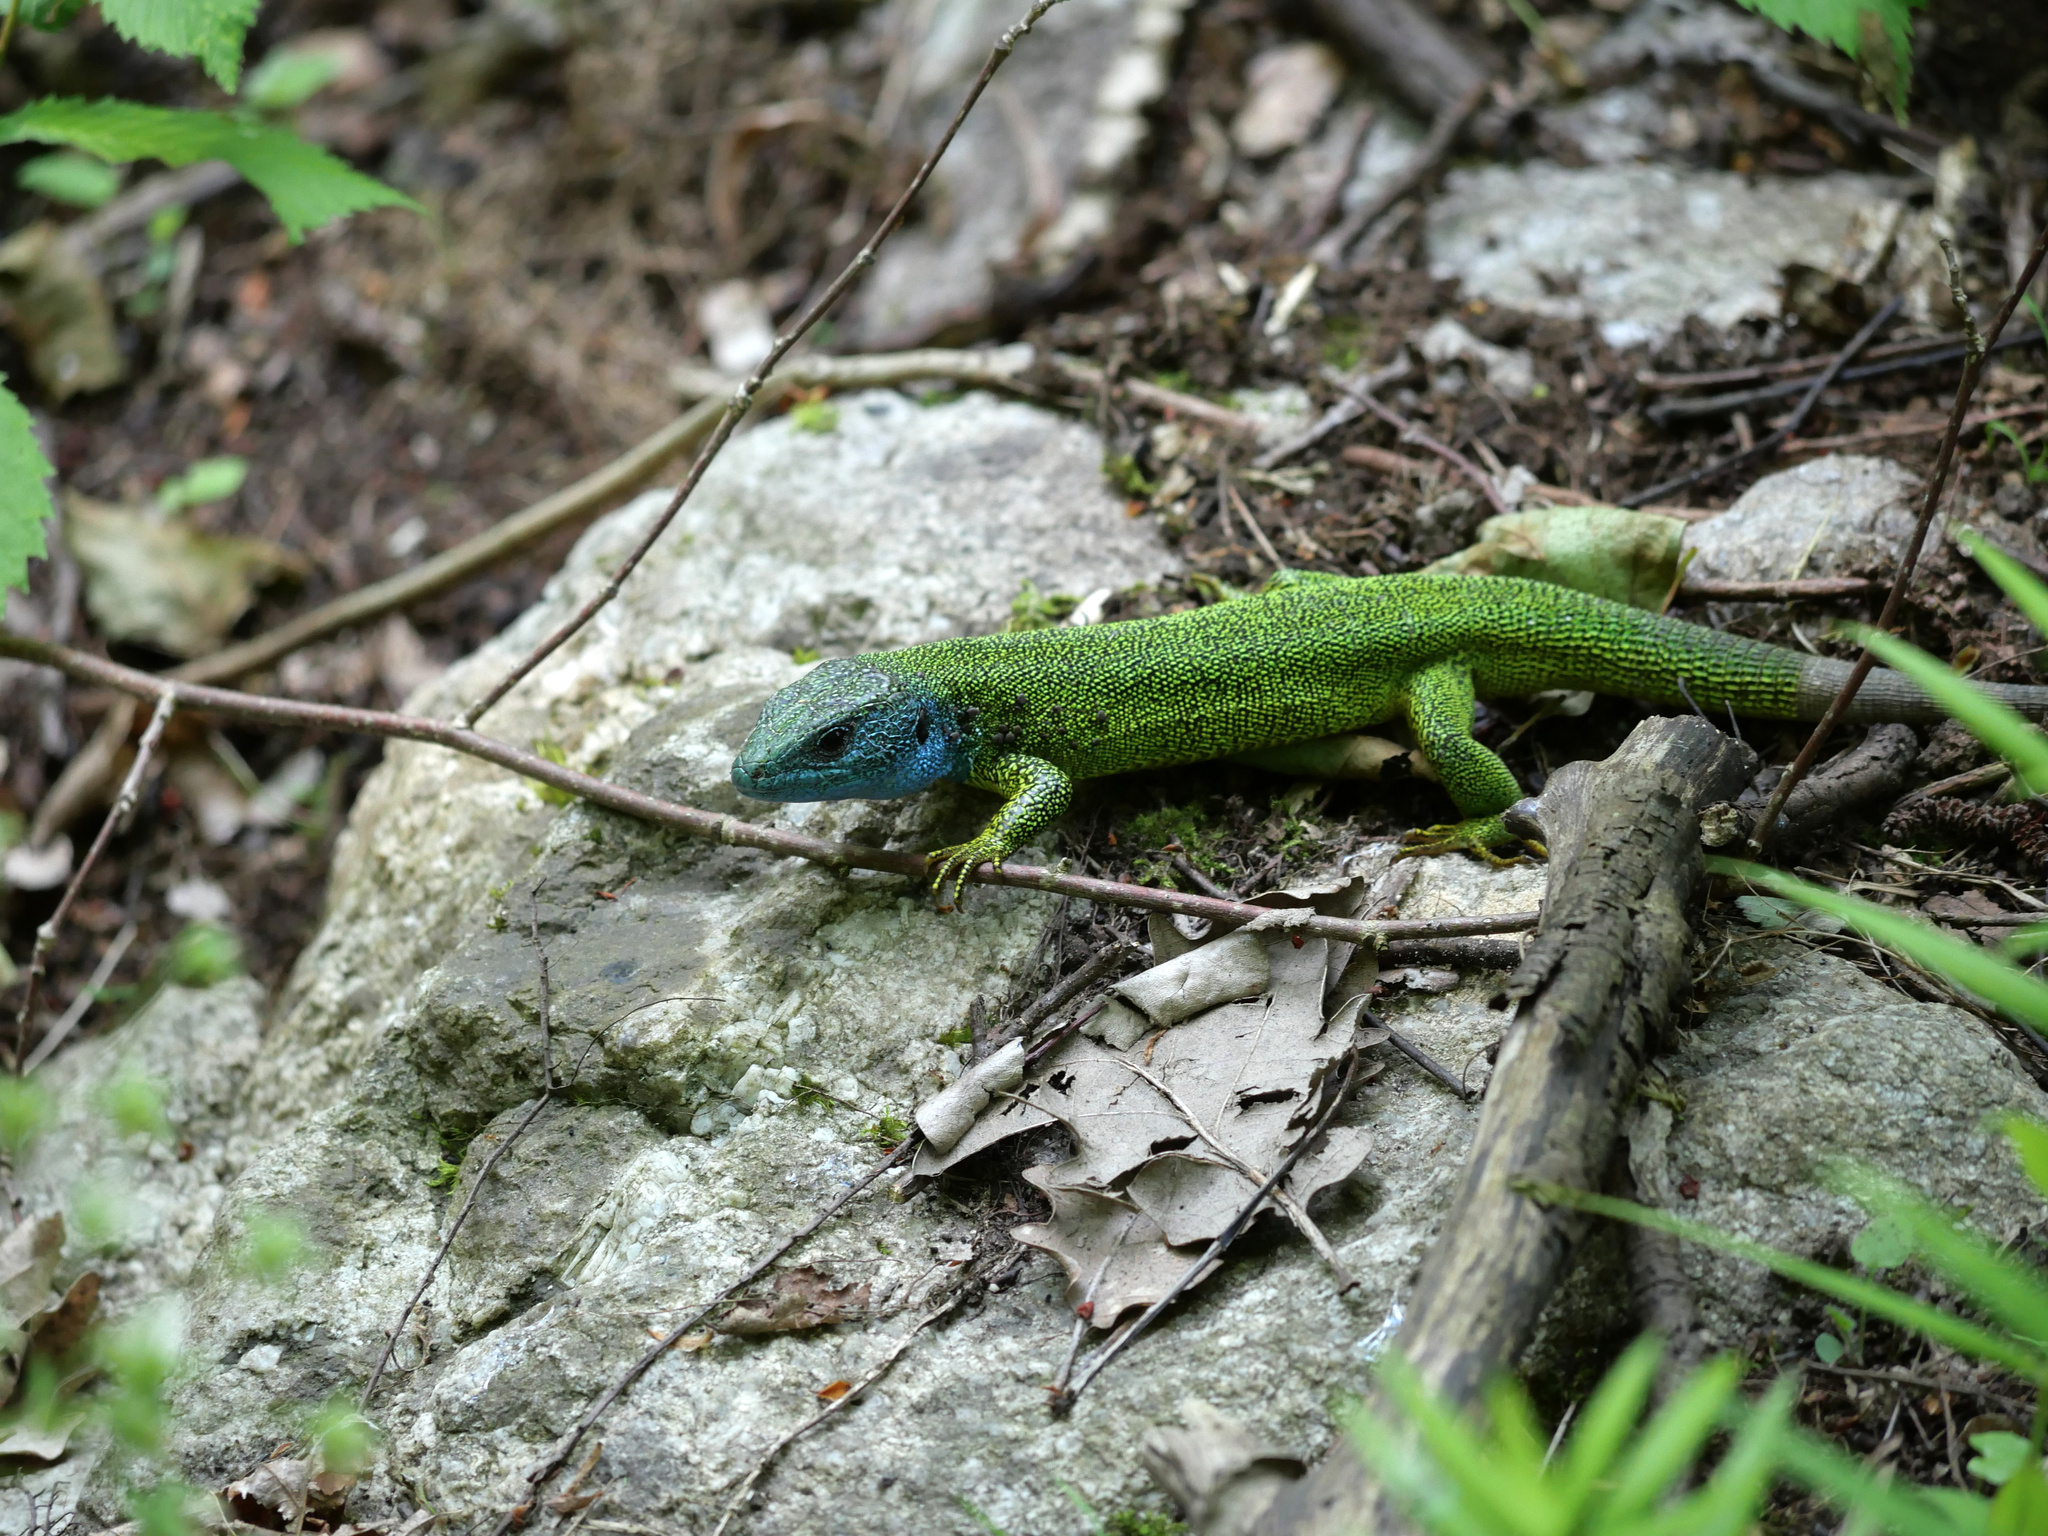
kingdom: Animalia
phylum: Chordata
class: Squamata
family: Lacertidae
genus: Lacerta
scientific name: Lacerta viridis
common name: European green lizard
